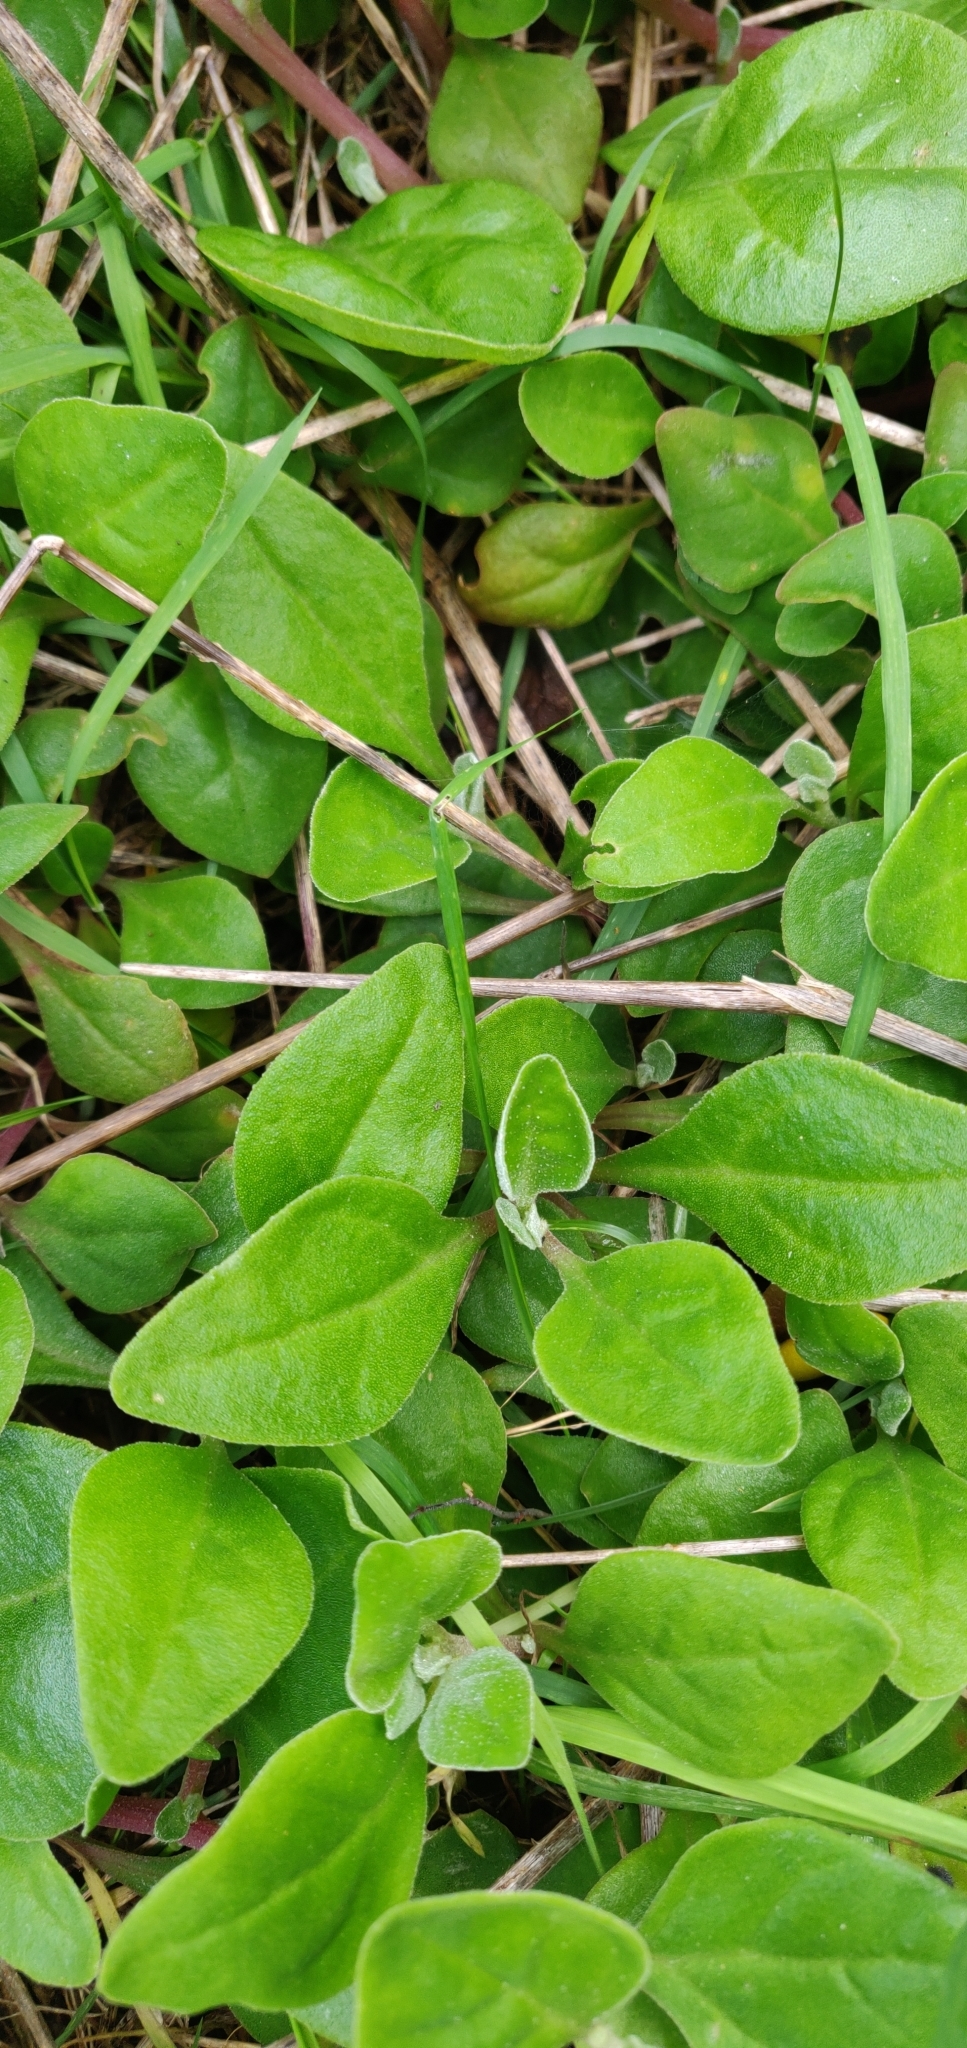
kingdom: Plantae
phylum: Tracheophyta
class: Magnoliopsida
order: Caryophyllales
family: Aizoaceae
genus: Tetragonia
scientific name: Tetragonia implexicoma
